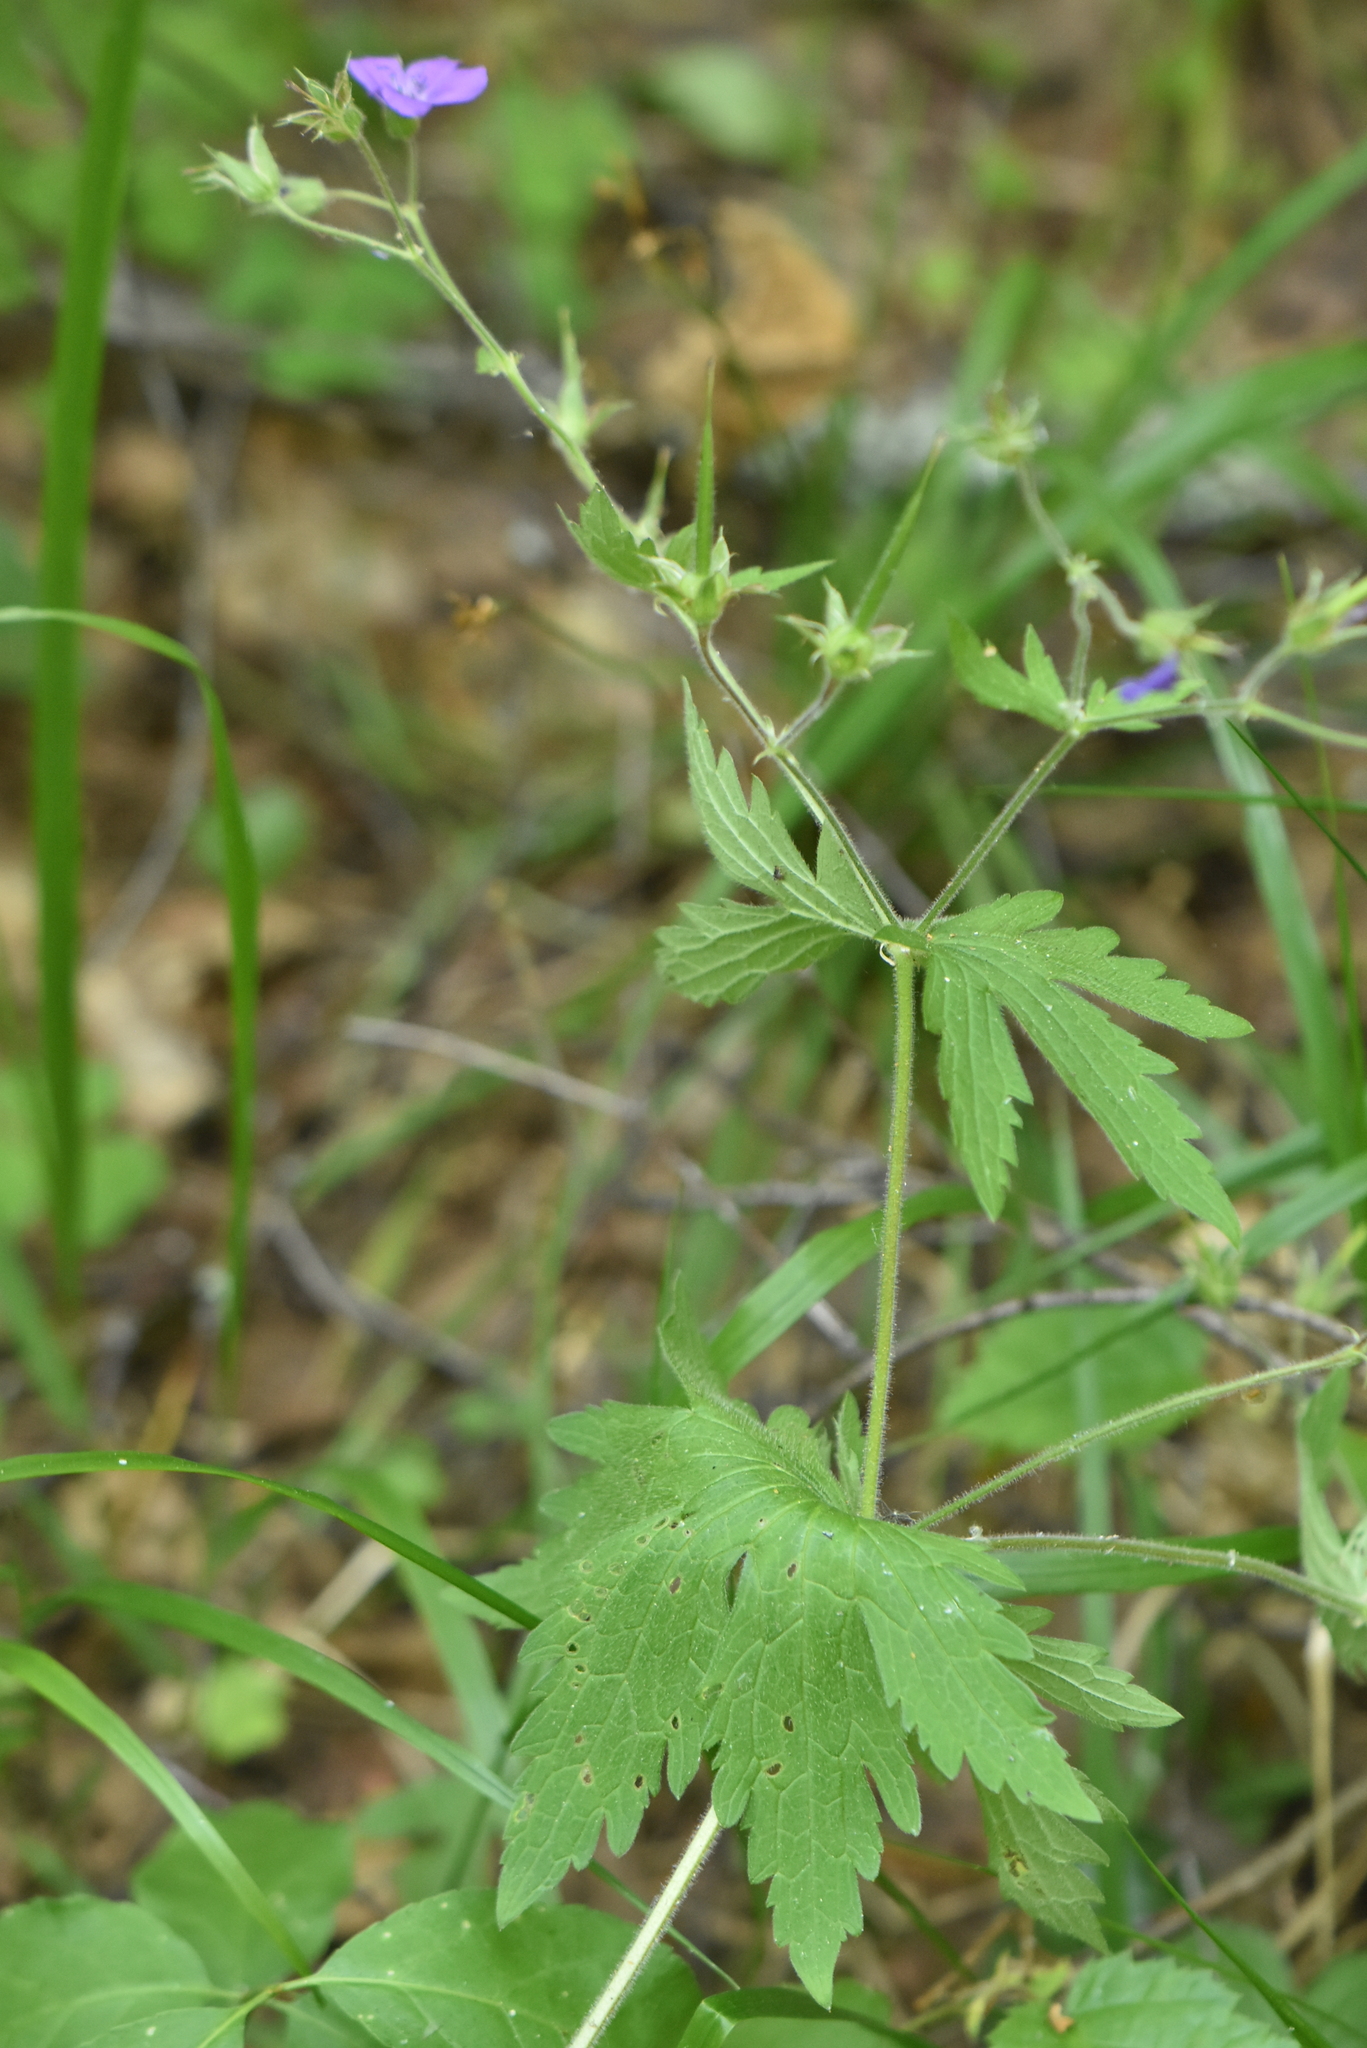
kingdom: Plantae
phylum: Tracheophyta
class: Magnoliopsida
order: Geraniales
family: Geraniaceae
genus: Geranium
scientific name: Geranium sylvaticum
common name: Wood crane's-bill
